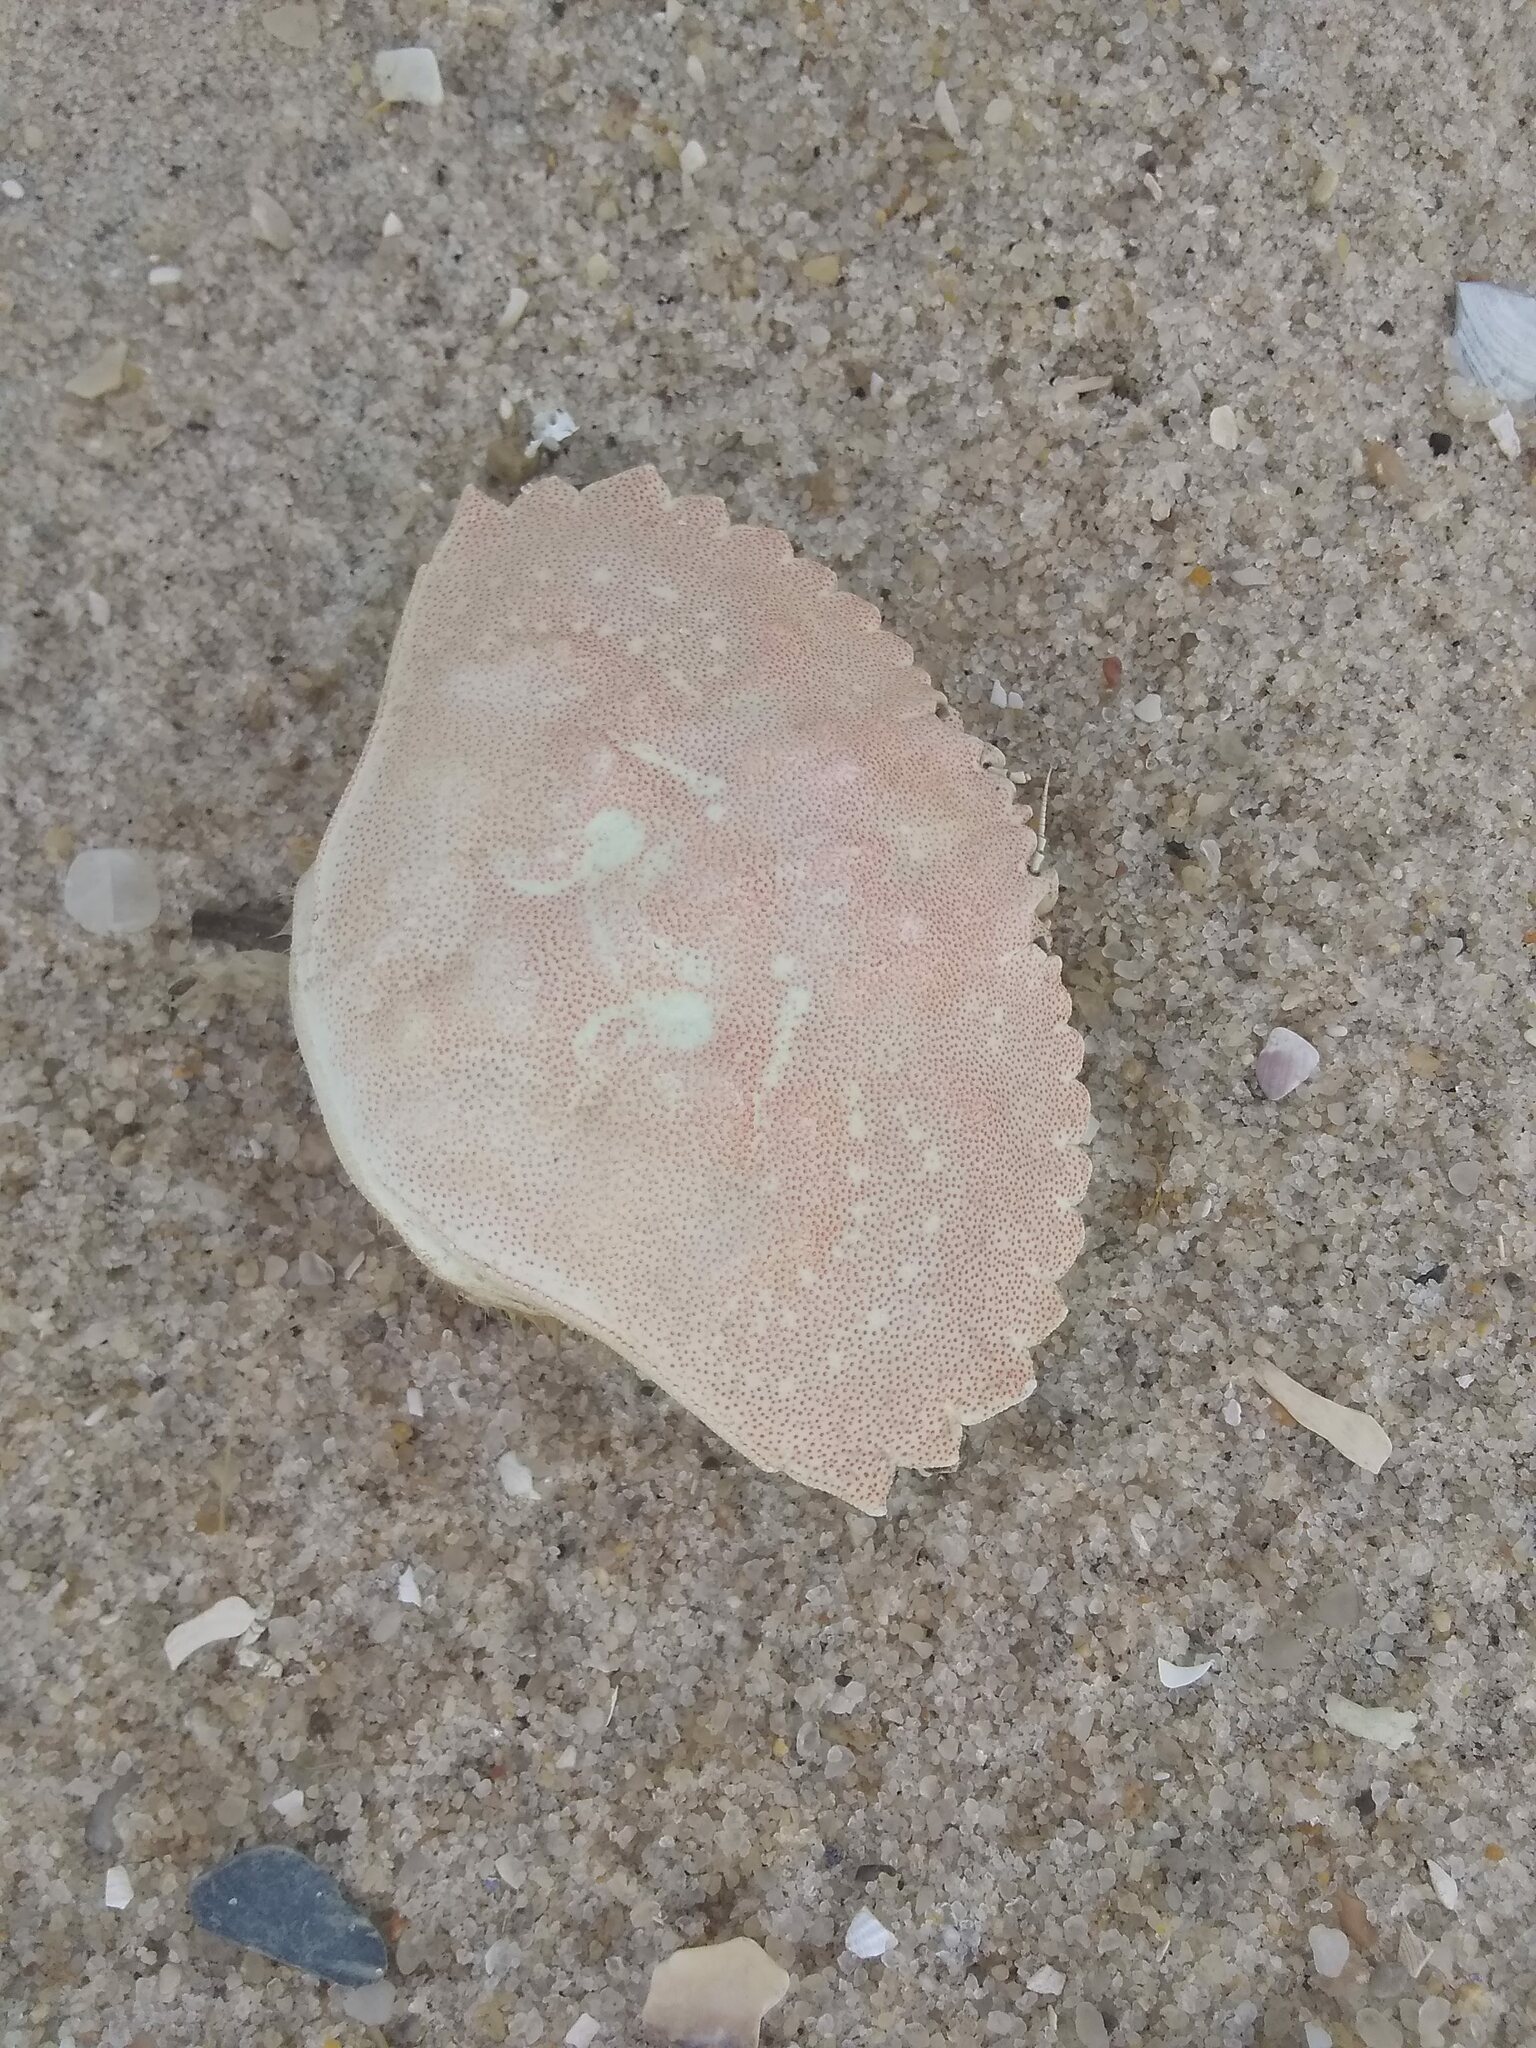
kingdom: Animalia
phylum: Arthropoda
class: Malacostraca
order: Decapoda
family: Cancridae
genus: Cancer
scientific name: Cancer irroratus
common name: Atlantic rock crab
